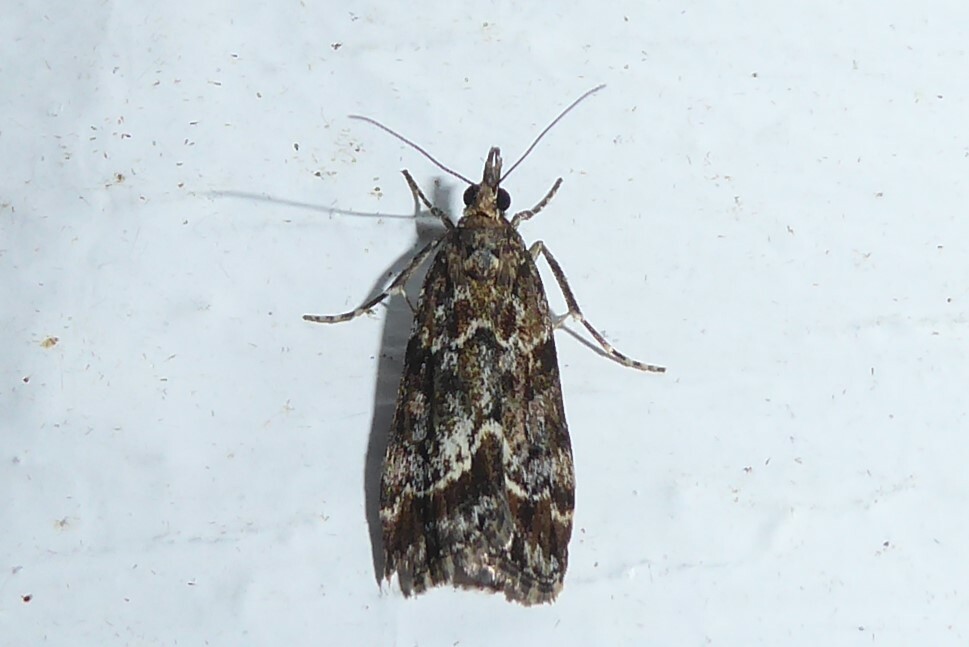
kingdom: Animalia
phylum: Arthropoda
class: Insecta
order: Lepidoptera
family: Crambidae
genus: Eudonia
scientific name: Eudonia legnota
